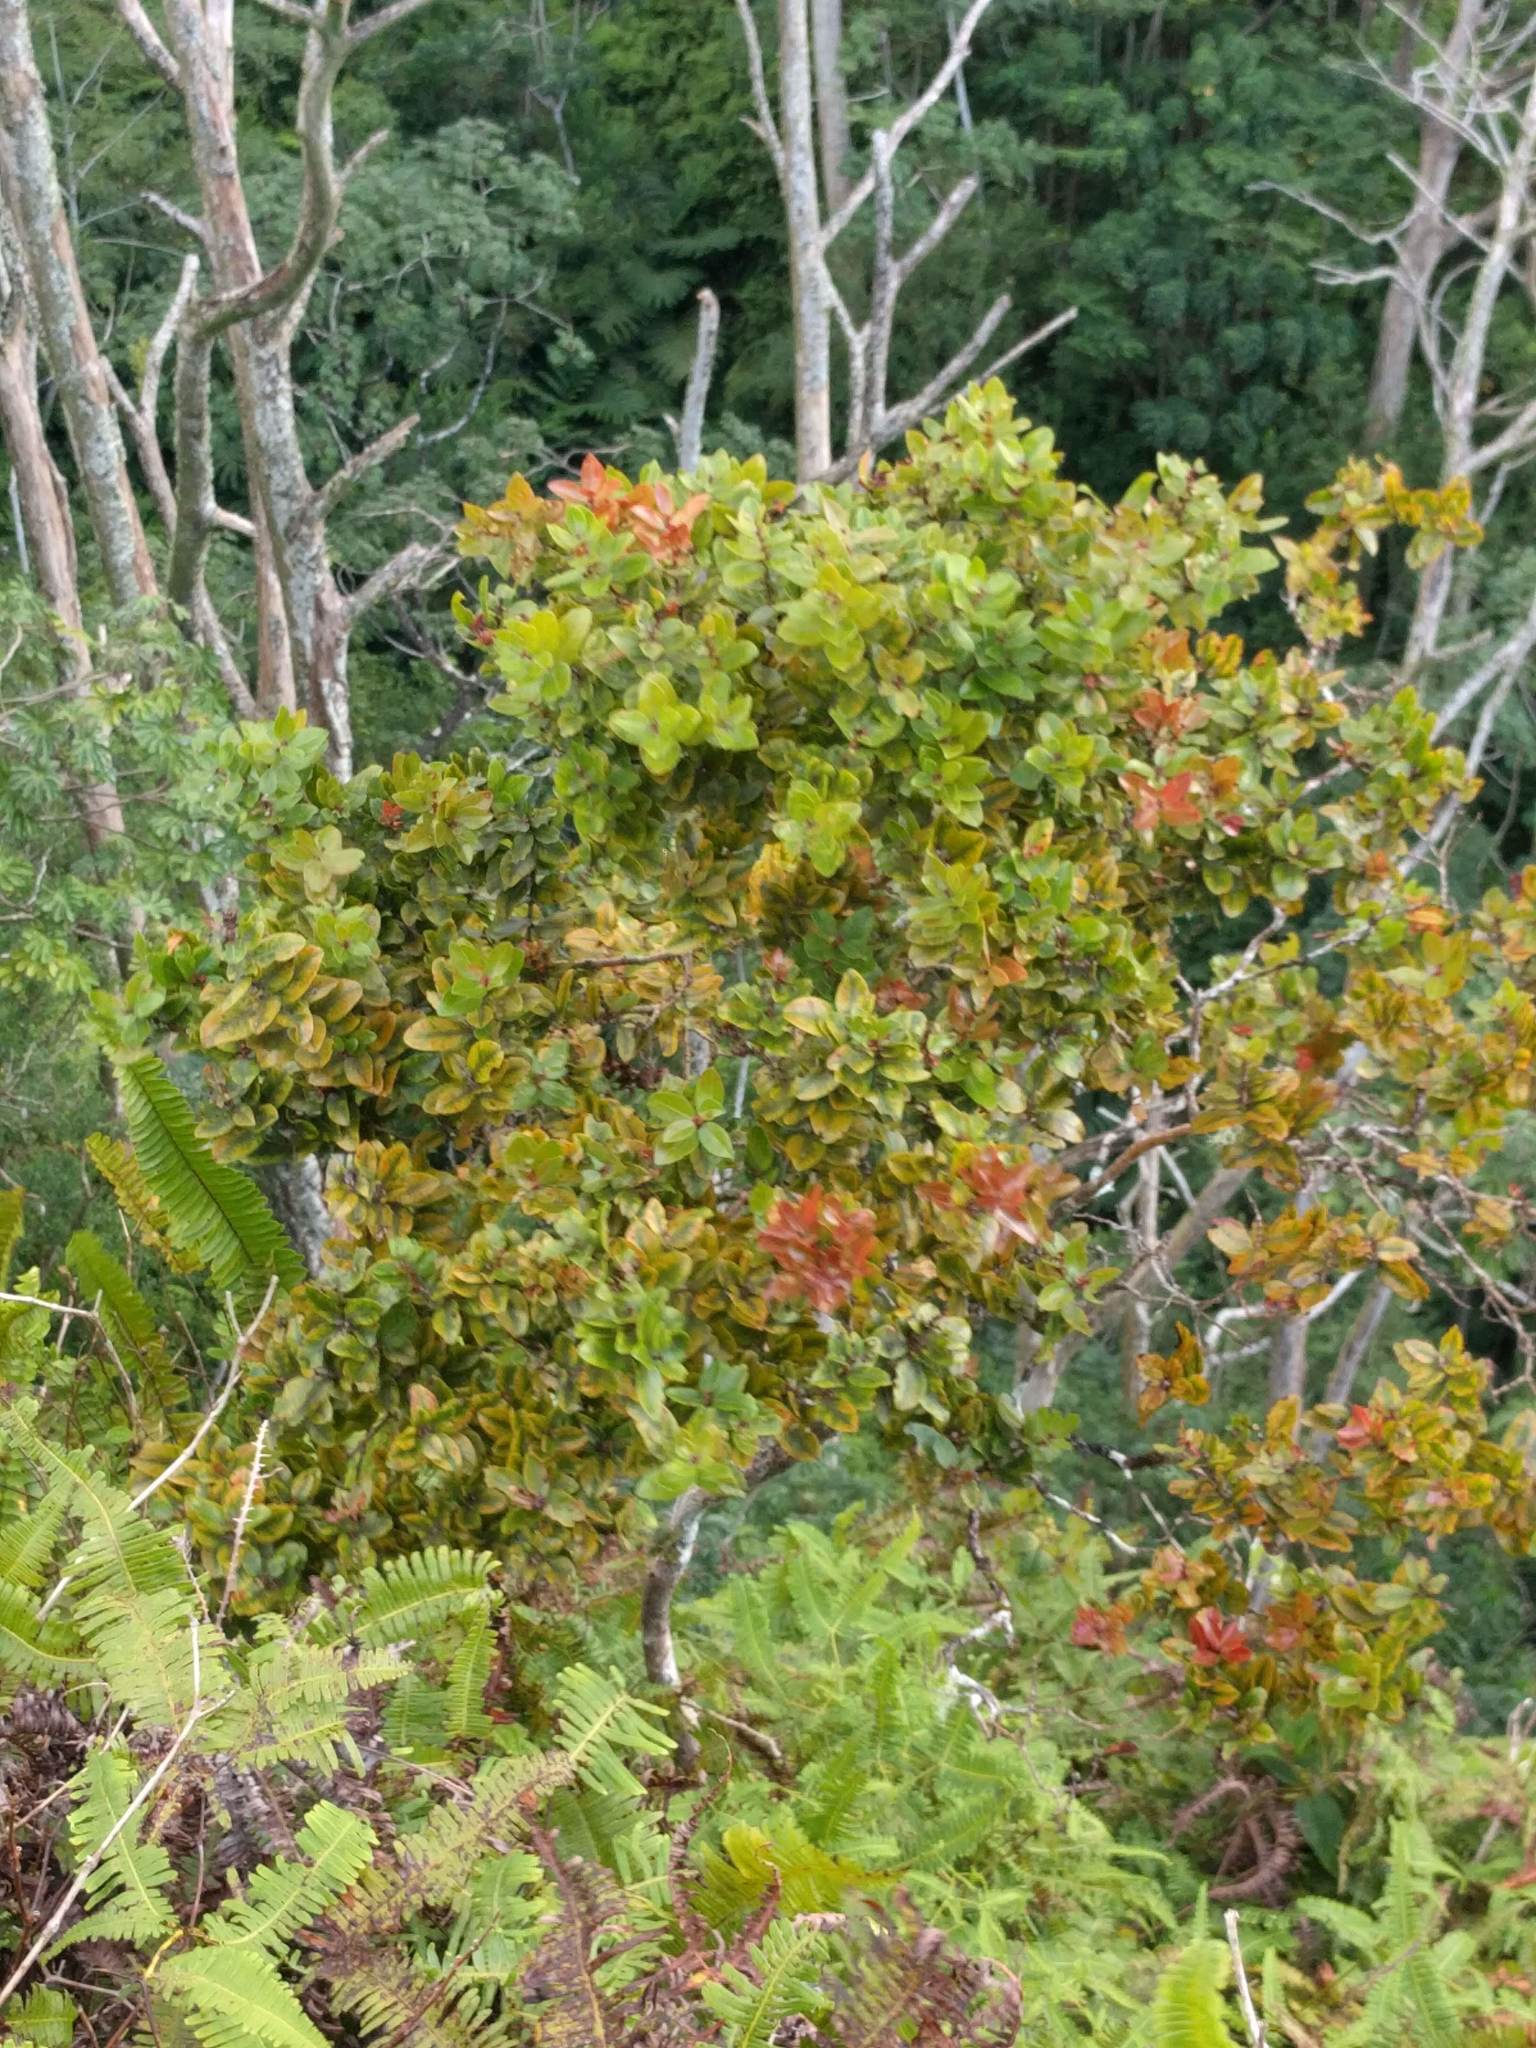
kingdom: Plantae
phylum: Tracheophyta
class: Magnoliopsida
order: Myrtales
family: Myrtaceae
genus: Metrosideros
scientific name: Metrosideros polymorpha
